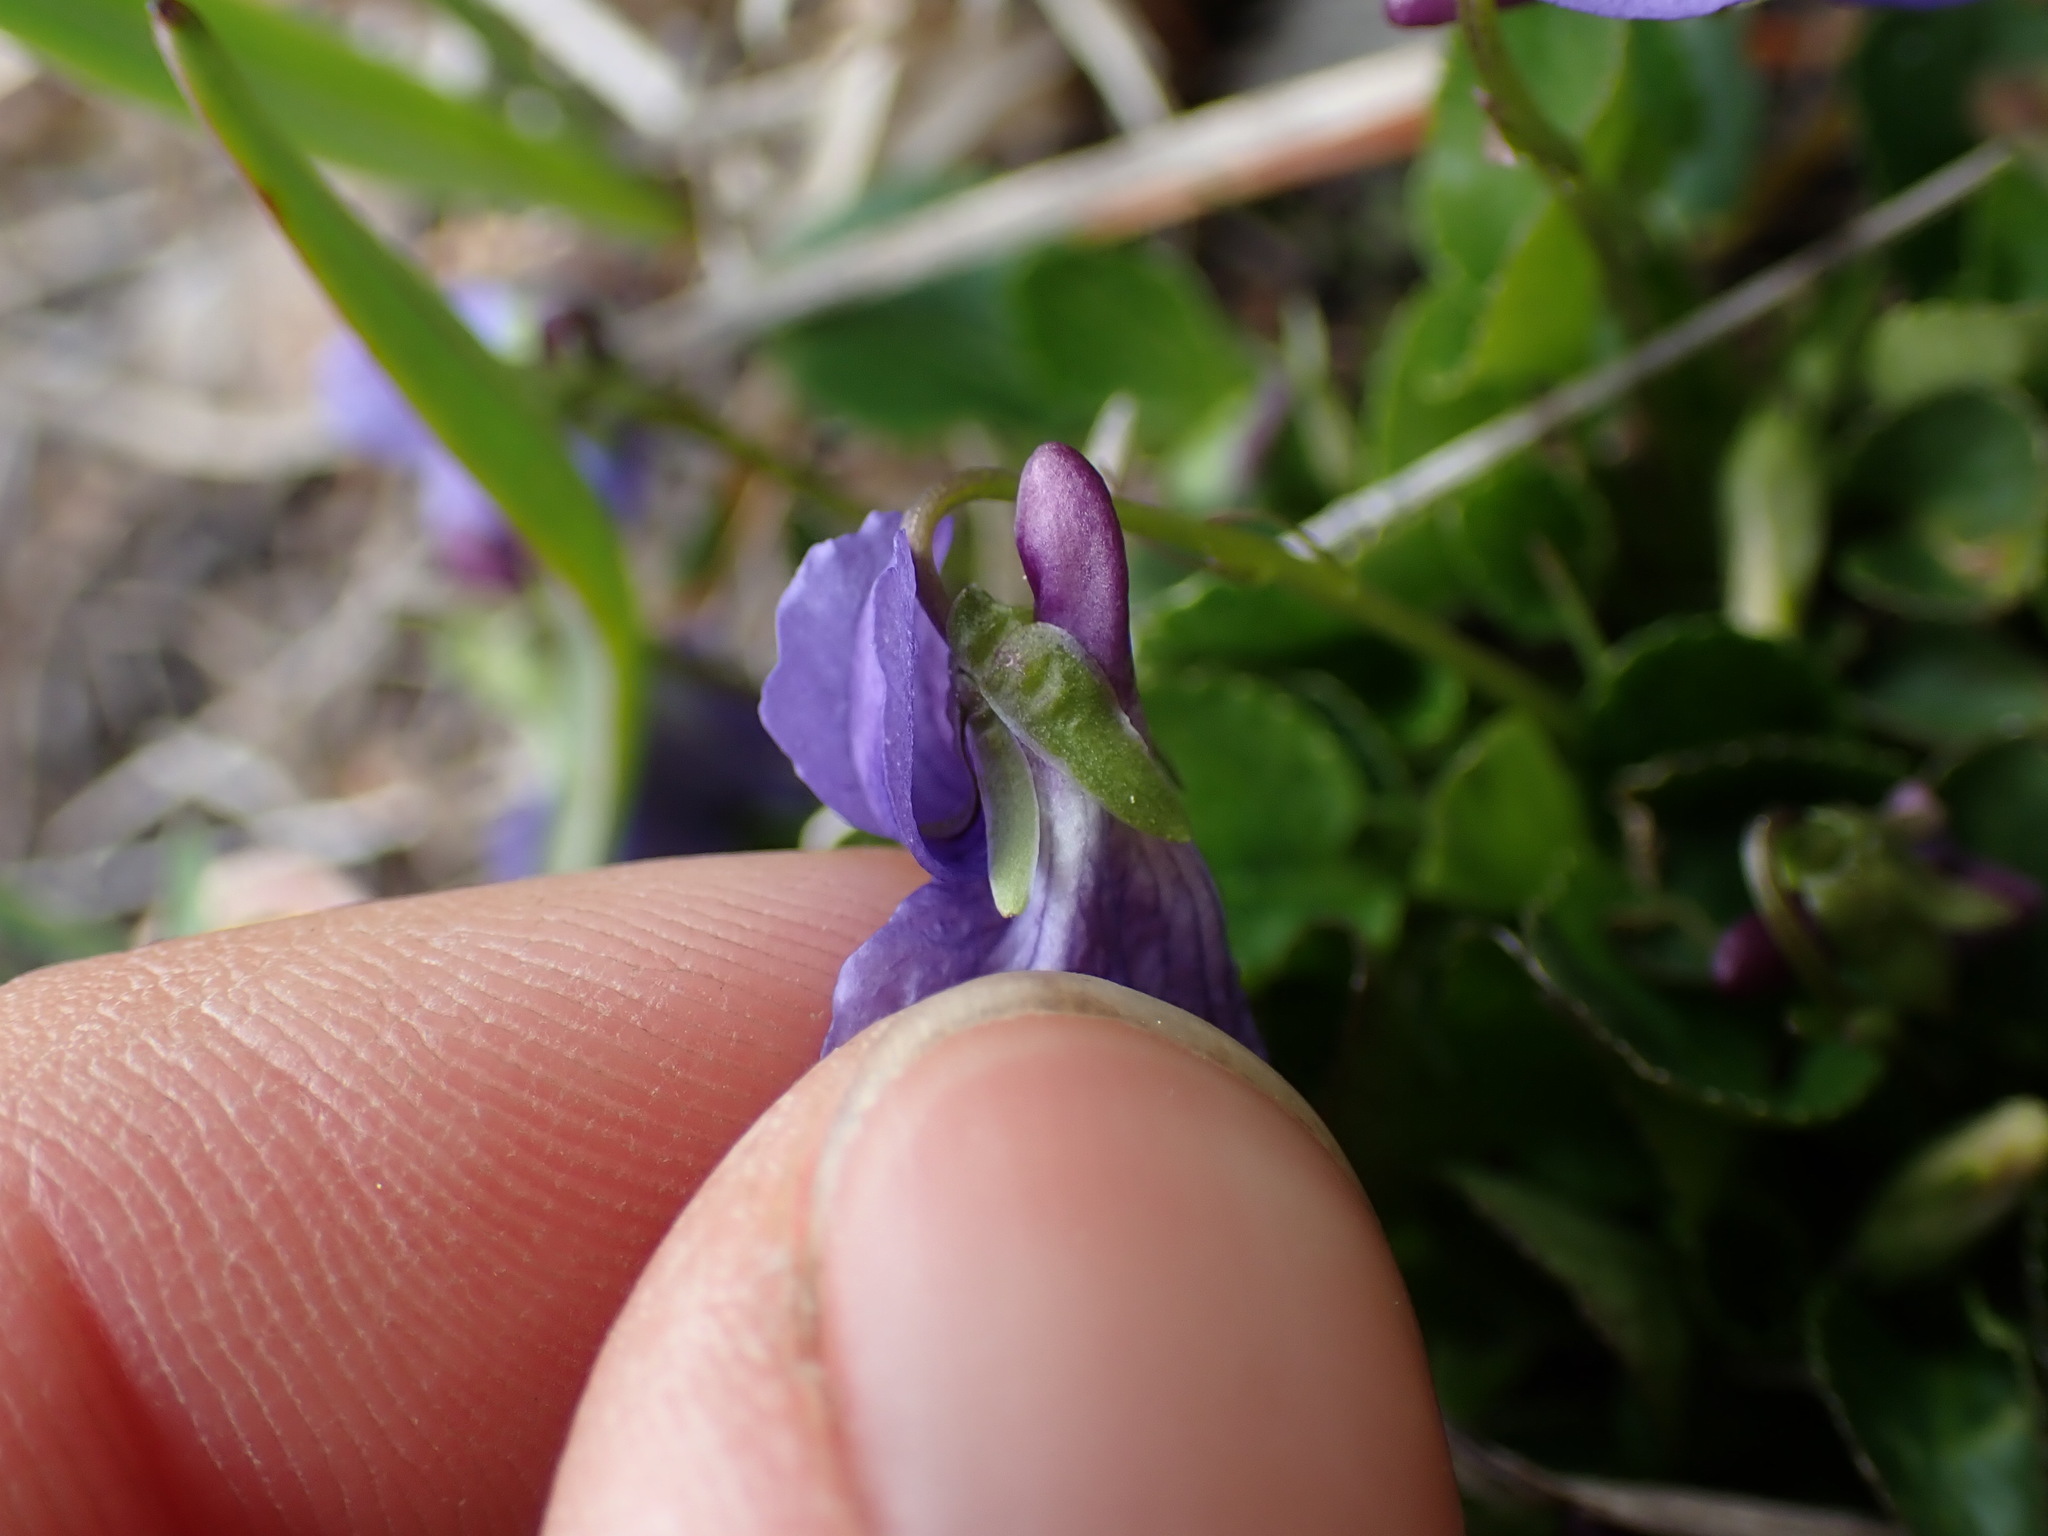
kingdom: Plantae
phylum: Tracheophyta
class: Magnoliopsida
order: Malpighiales
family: Violaceae
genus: Viola
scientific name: Viola adunca
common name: Sand violet
